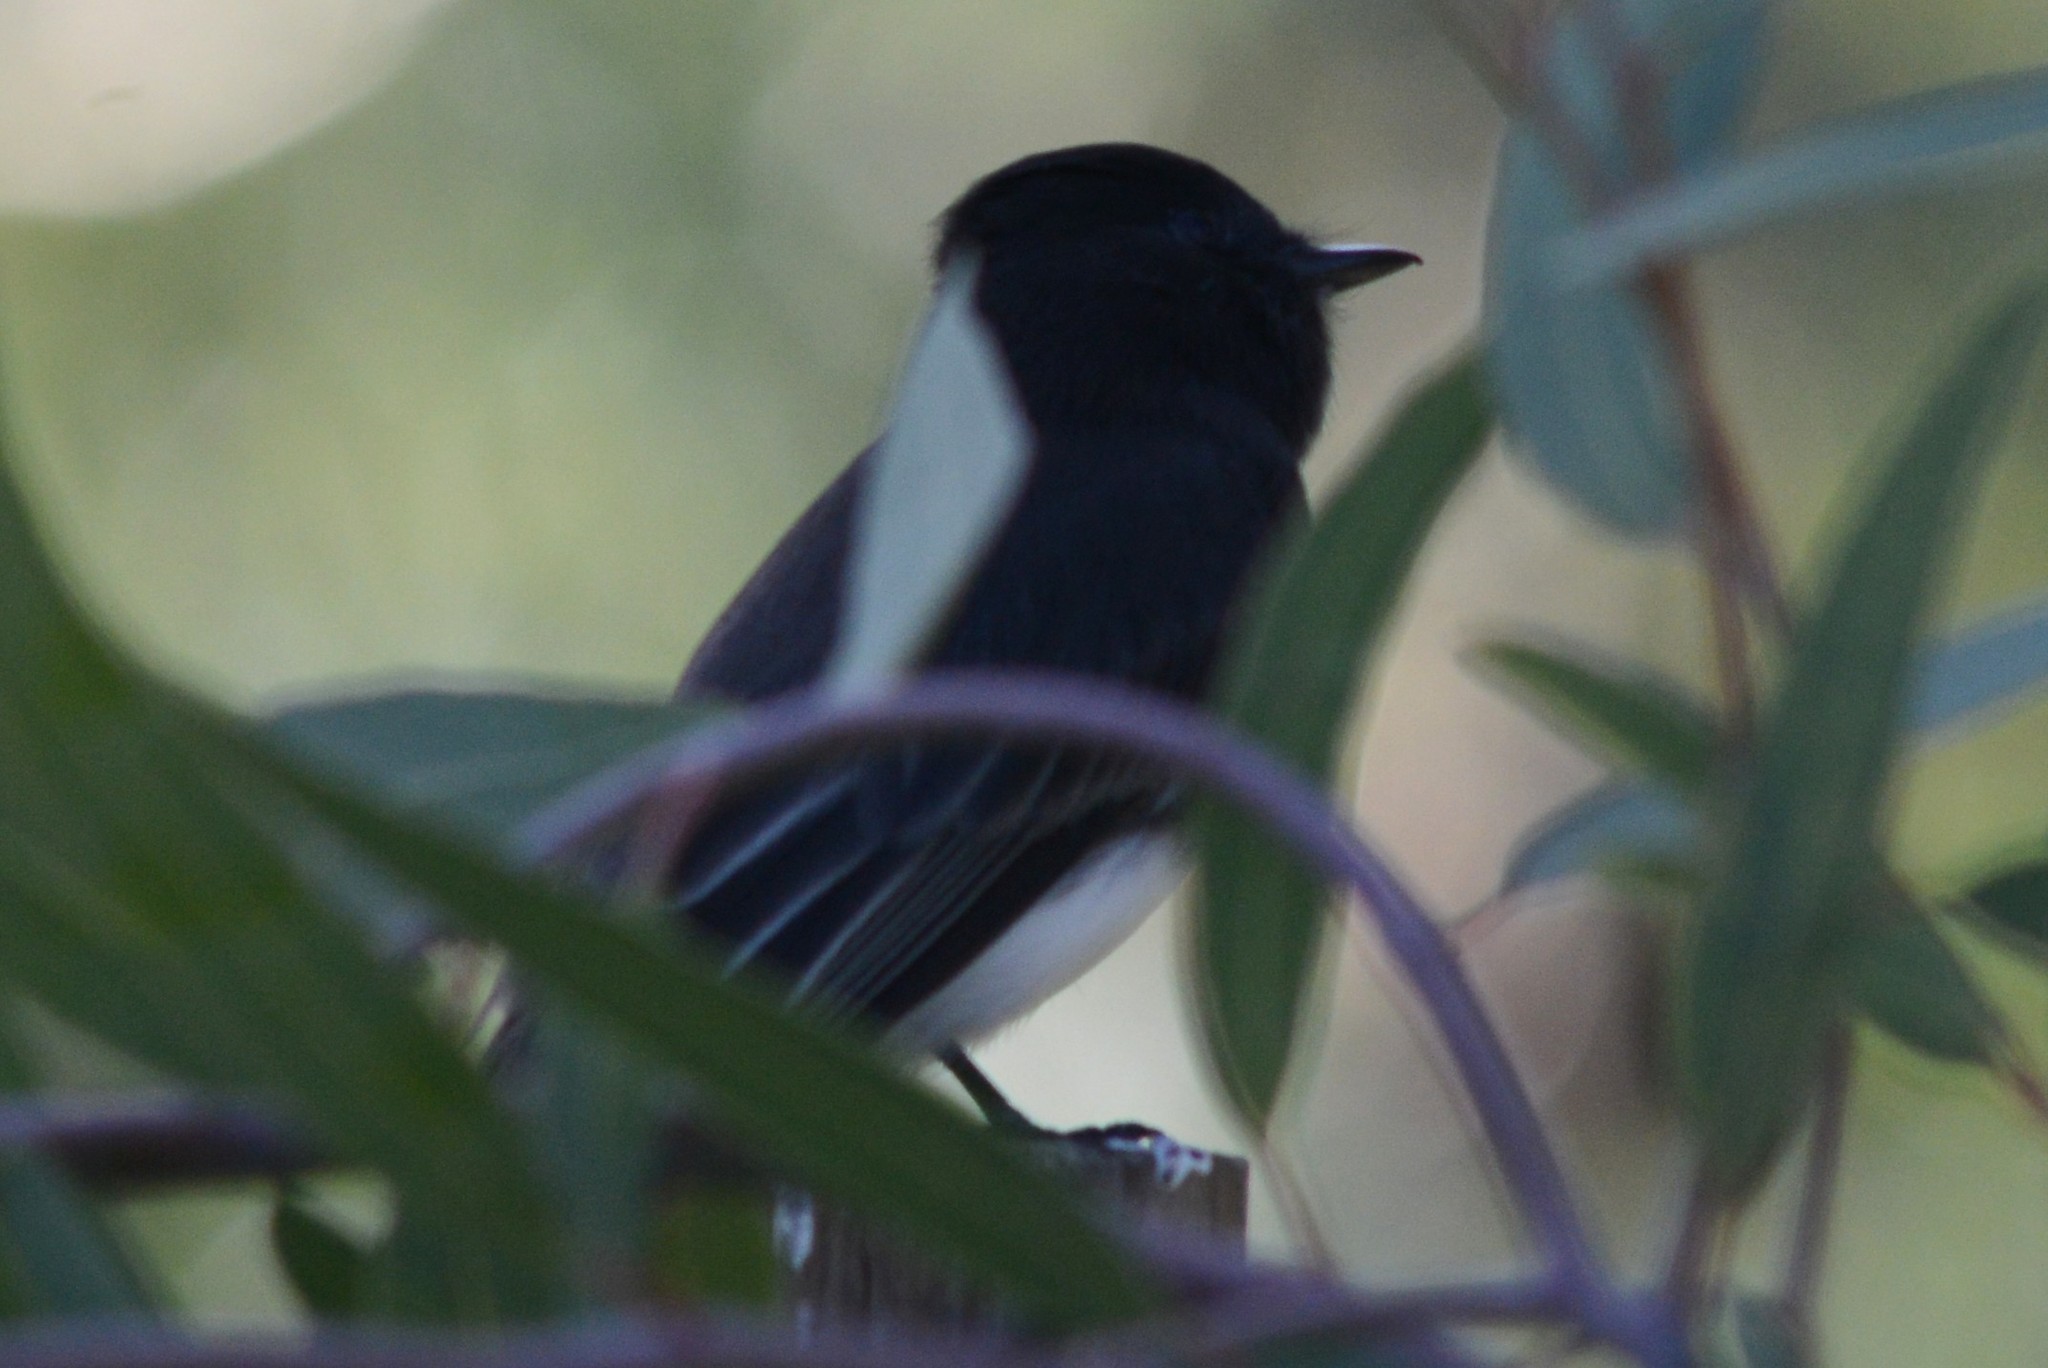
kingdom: Animalia
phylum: Chordata
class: Aves
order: Passeriformes
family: Tyrannidae
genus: Sayornis
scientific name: Sayornis nigricans
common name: Black phoebe
